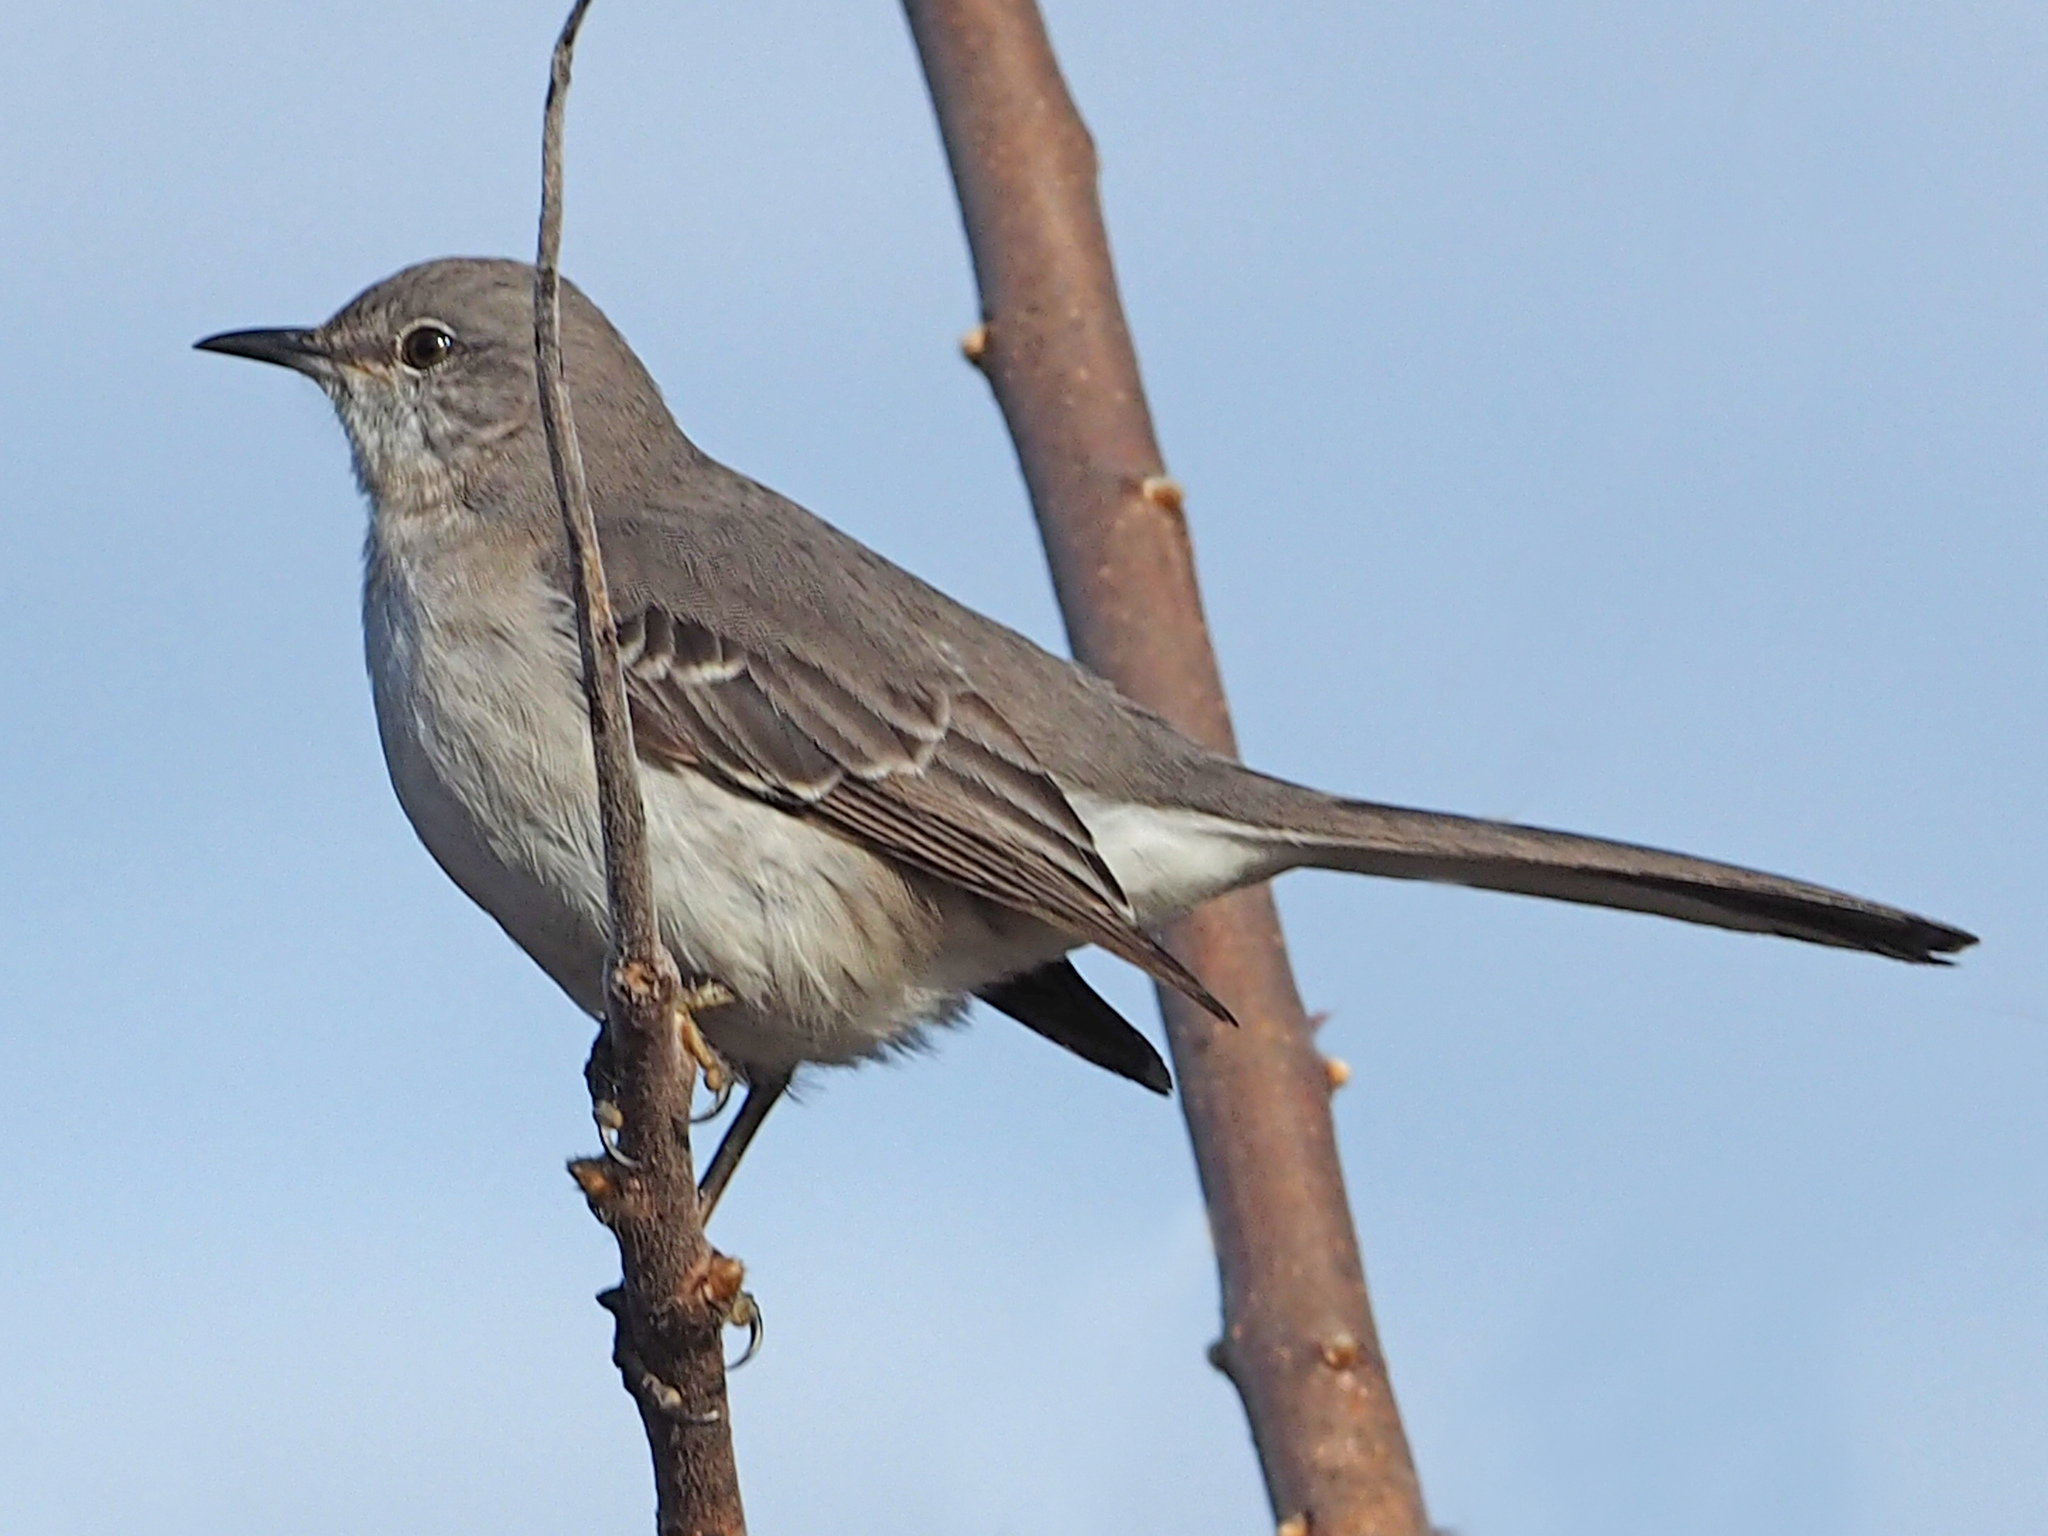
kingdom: Animalia
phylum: Chordata
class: Aves
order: Passeriformes
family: Mimidae
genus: Mimus
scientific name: Mimus polyglottos
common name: Northern mockingbird
